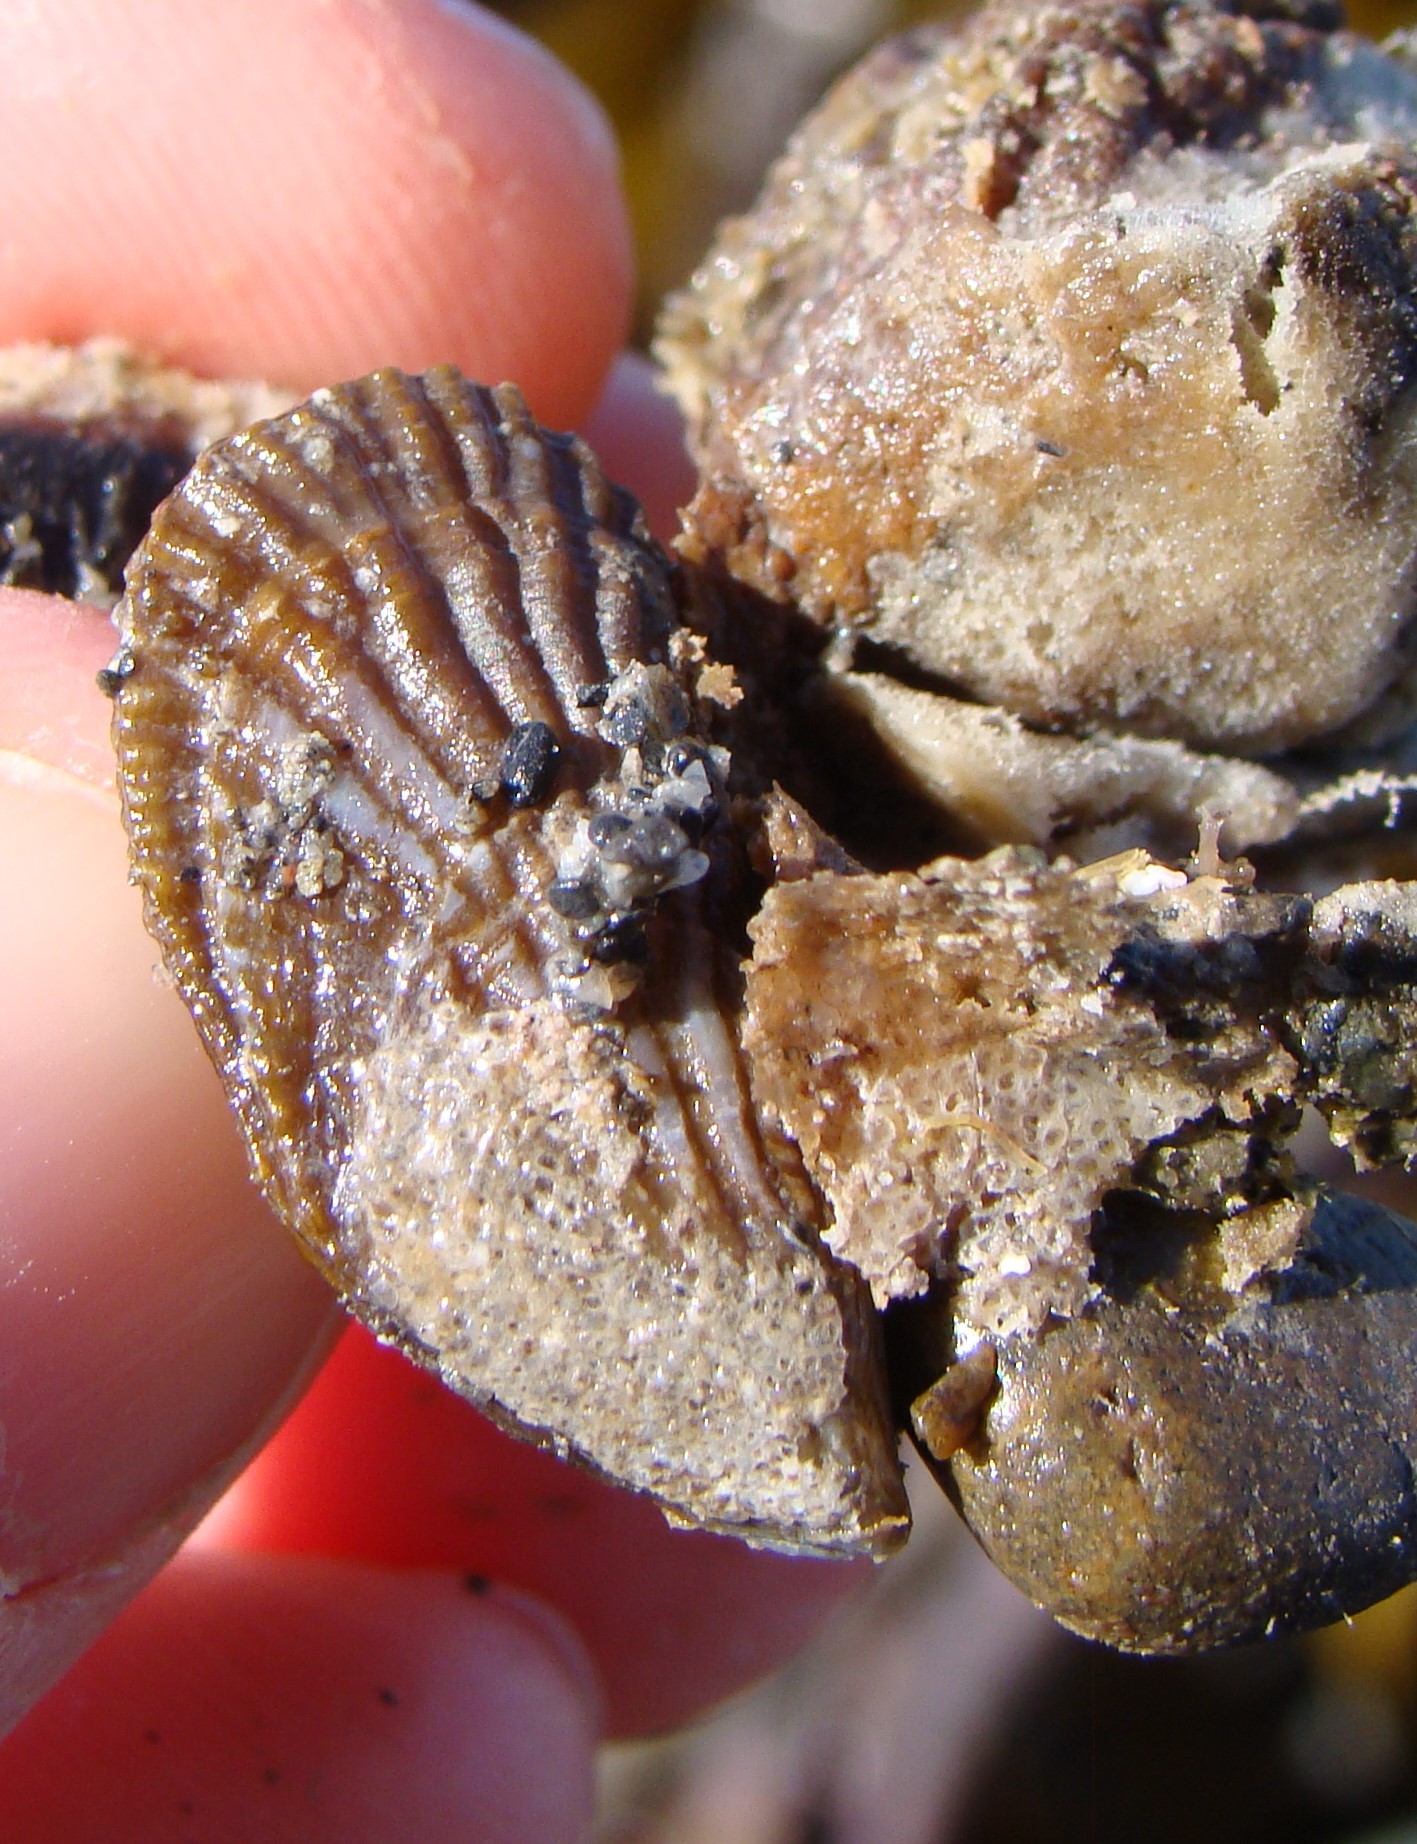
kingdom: Animalia
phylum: Mollusca
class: Bivalvia
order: Mytilida
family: Mytilidae
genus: Aulacomya
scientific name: Aulacomya maoriana
